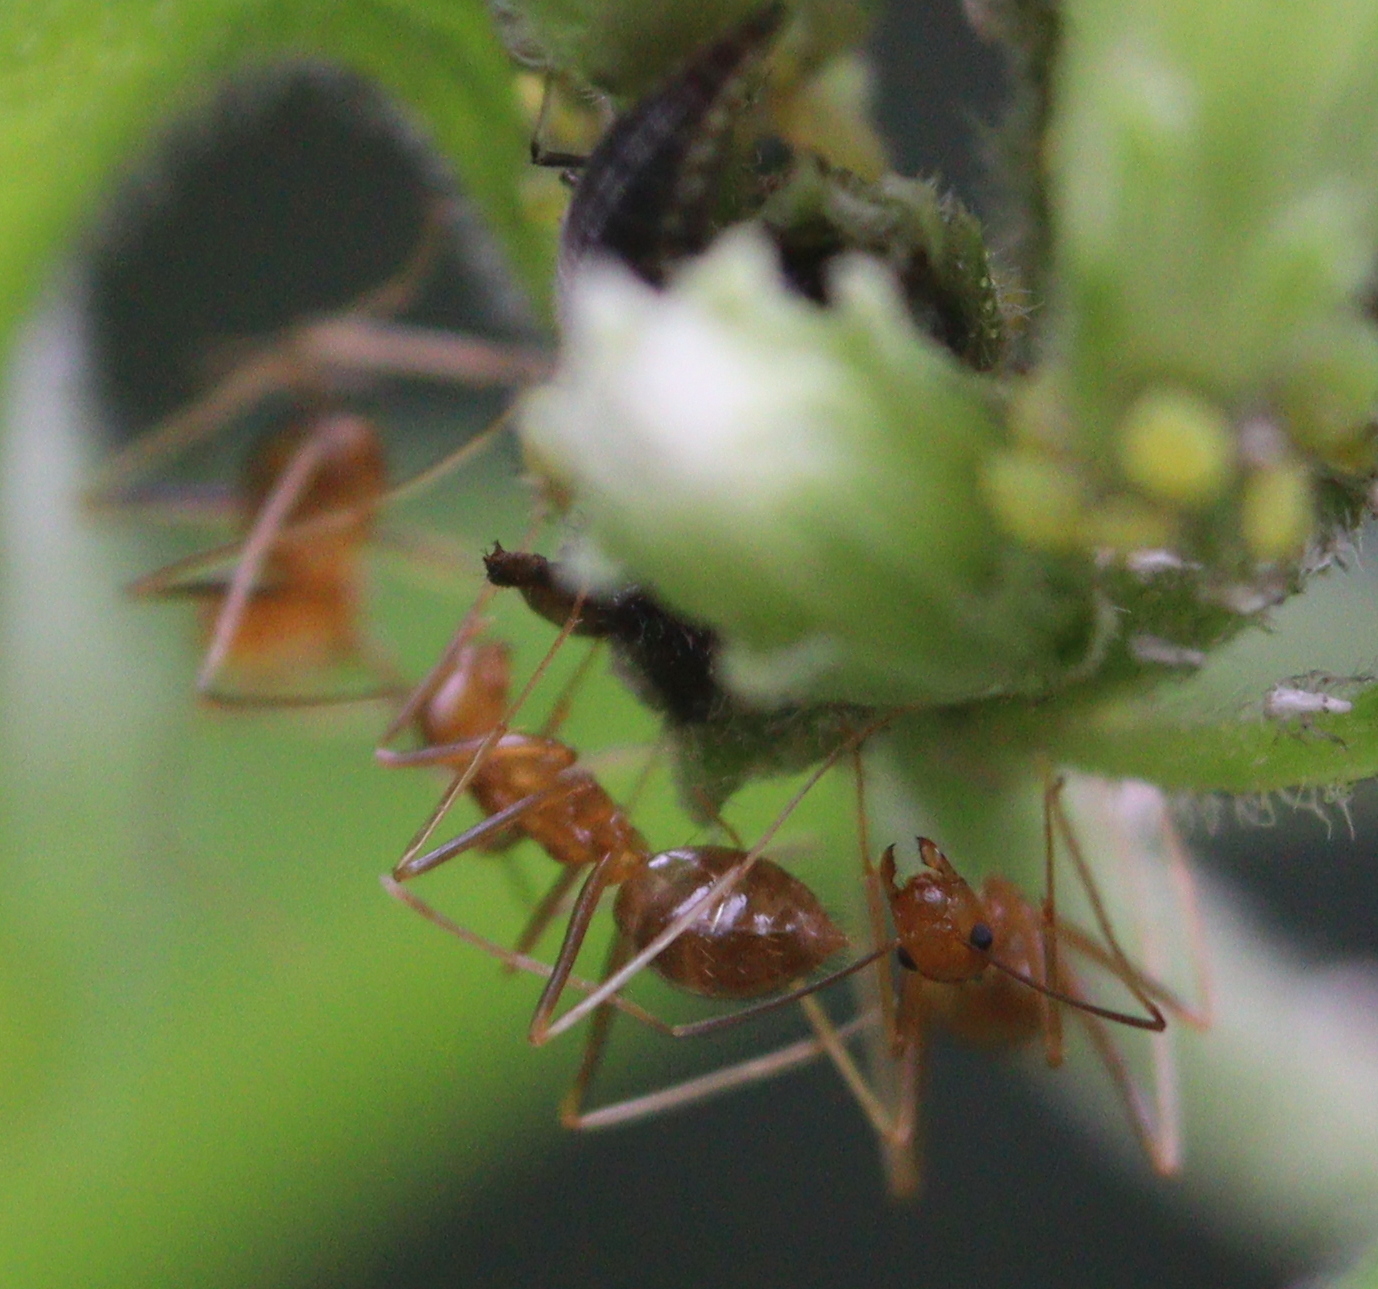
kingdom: Animalia
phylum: Arthropoda
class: Insecta
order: Hymenoptera
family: Formicidae
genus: Anoplolepis
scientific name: Anoplolepis gracilipes
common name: Ant
